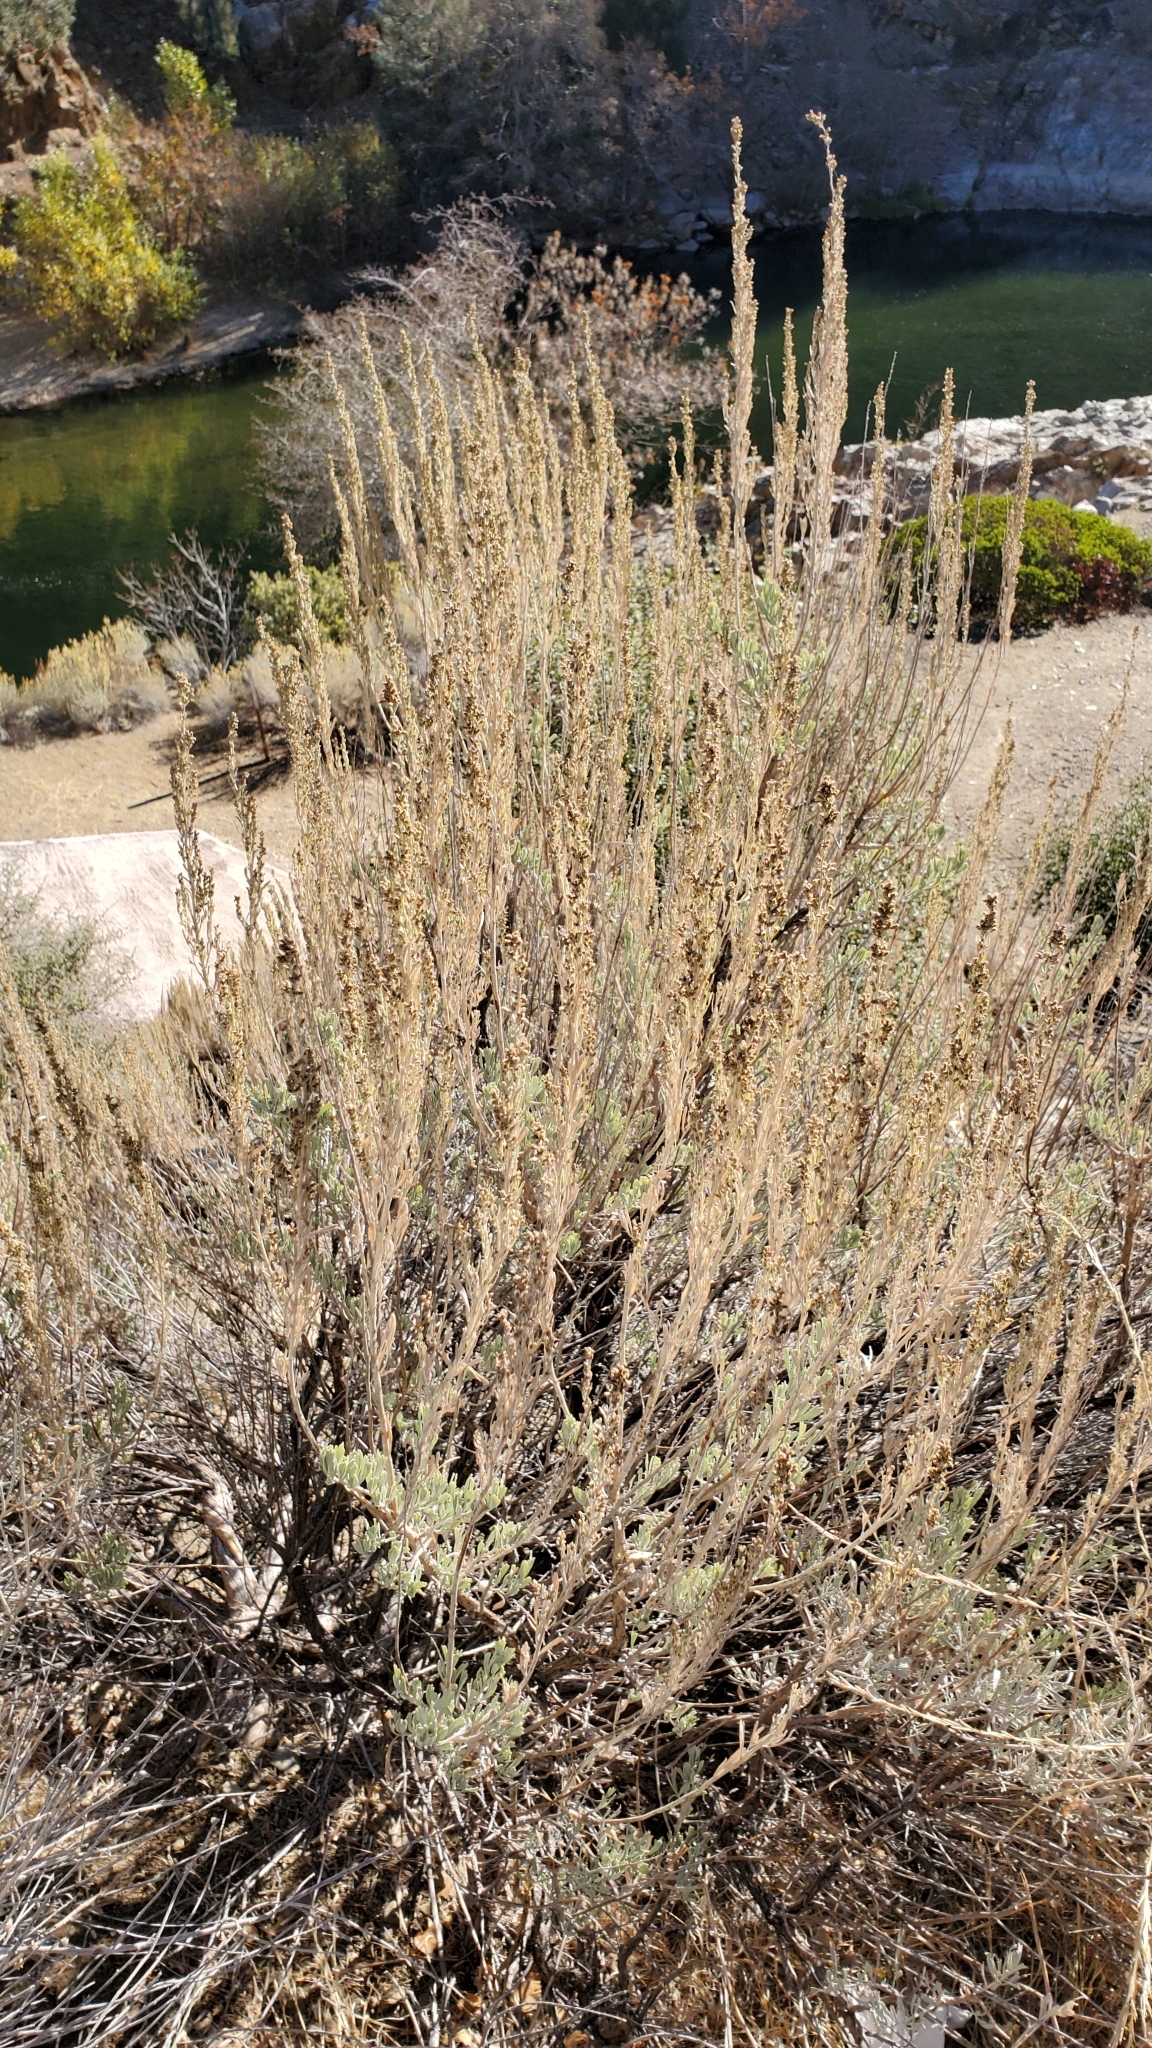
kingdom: Plantae
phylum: Tracheophyta
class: Magnoliopsida
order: Asterales
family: Asteraceae
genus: Artemisia
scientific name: Artemisia tridentata
